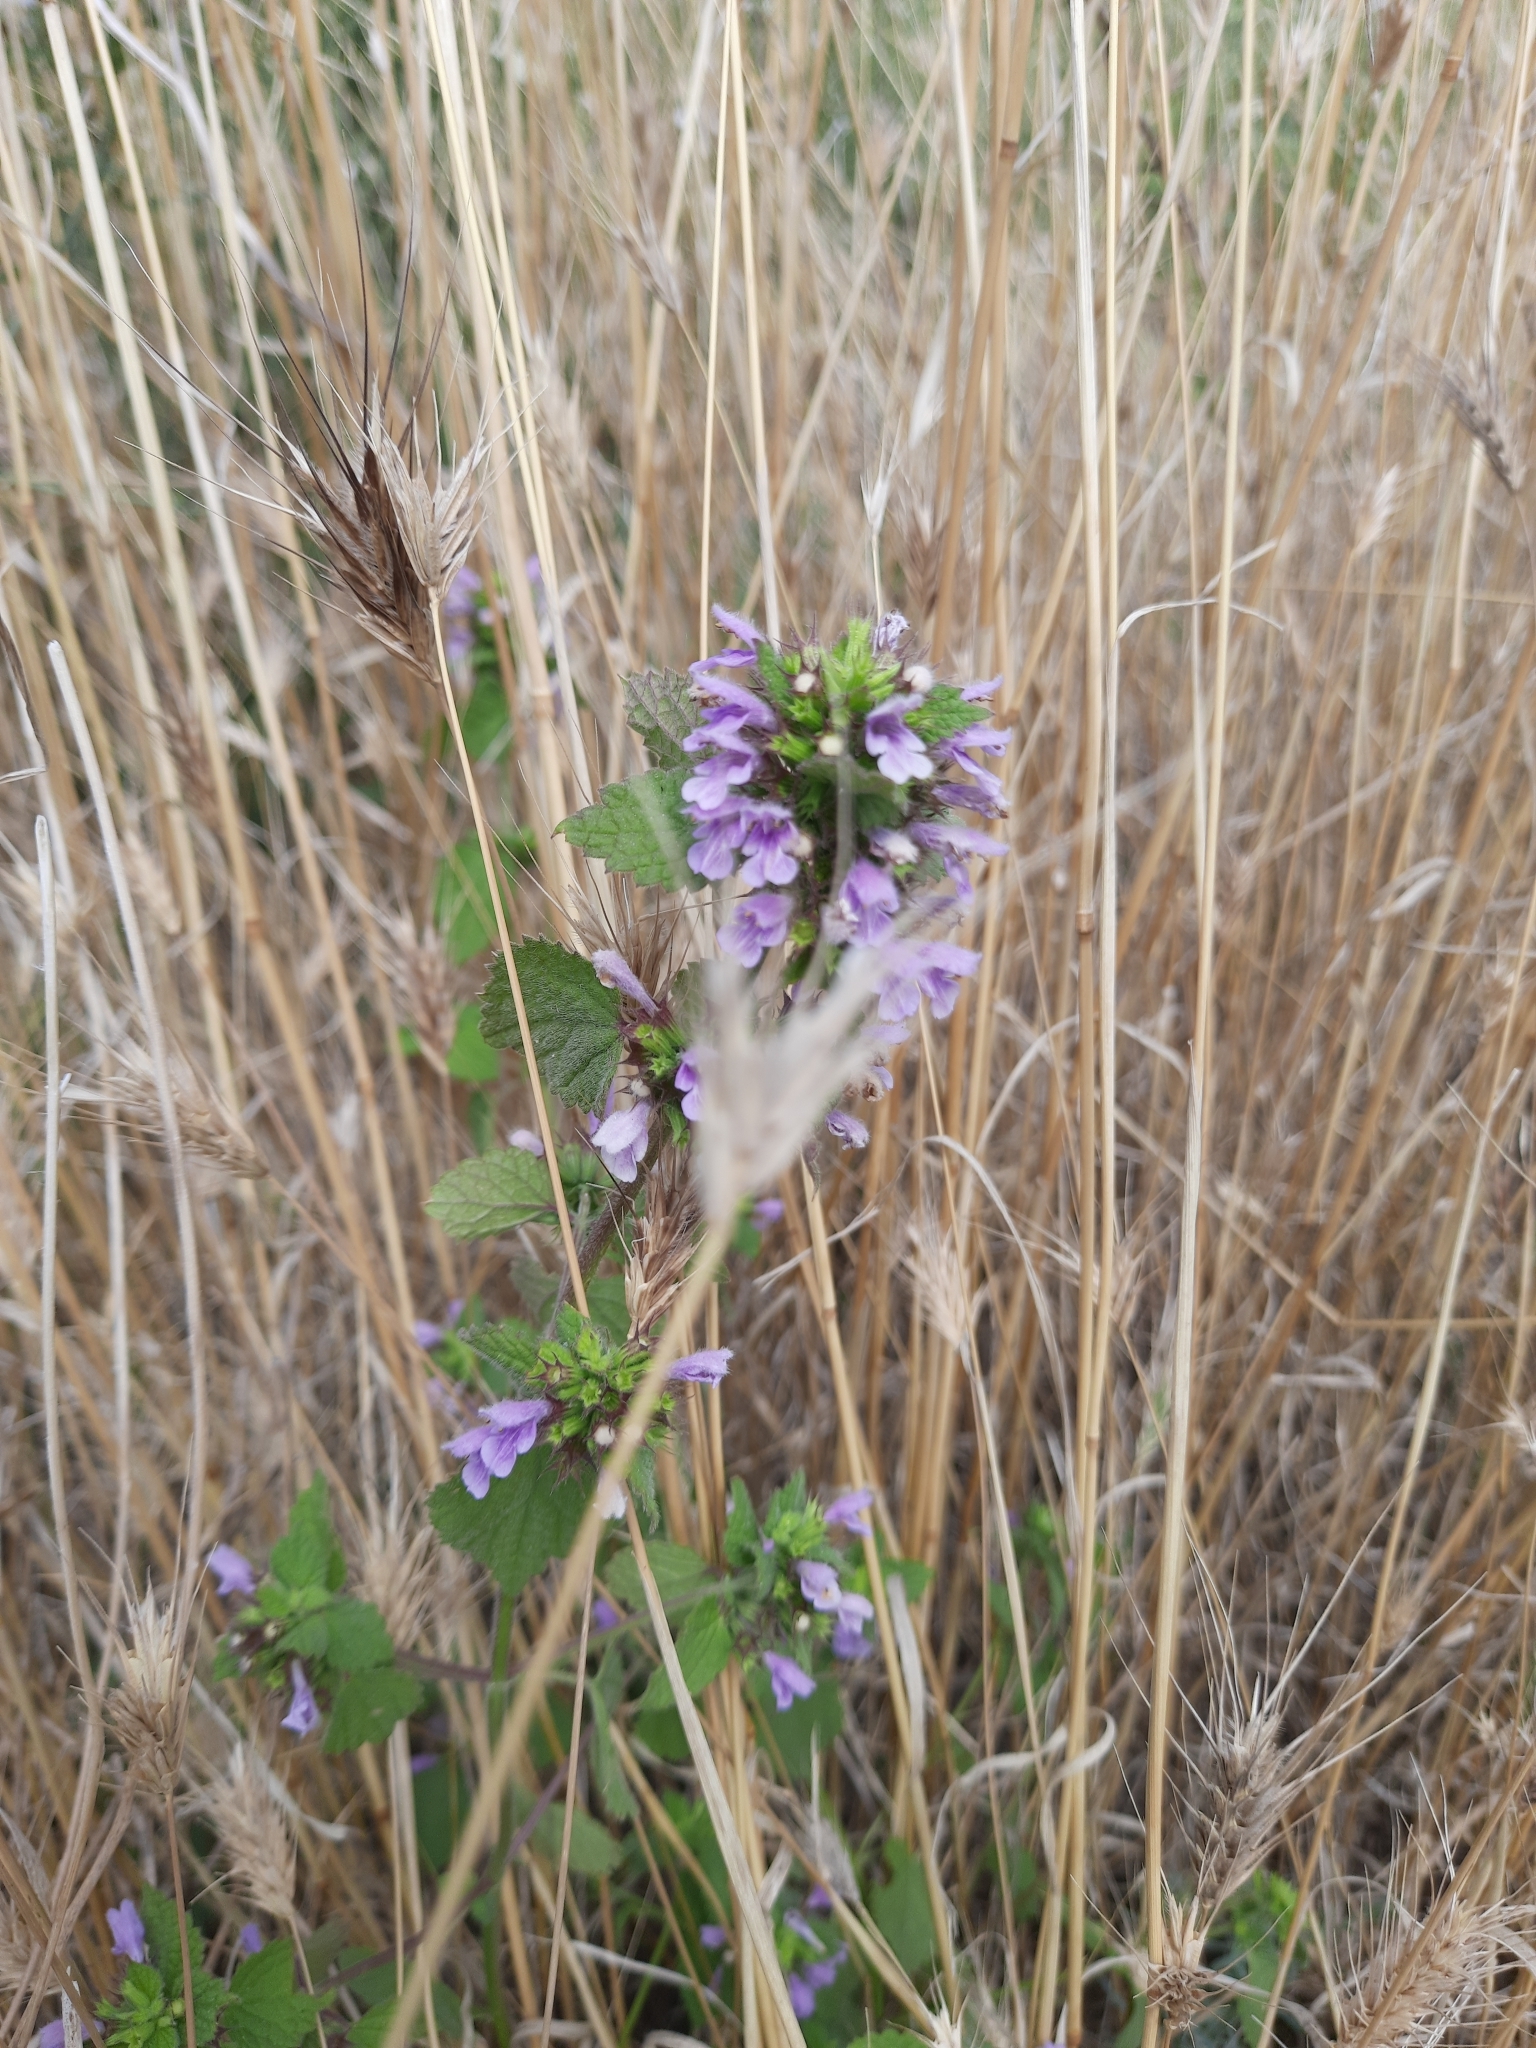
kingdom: Plantae
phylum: Tracheophyta
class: Magnoliopsida
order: Lamiales
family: Lamiaceae
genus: Ballota
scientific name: Ballota nigra
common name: Black horehound
